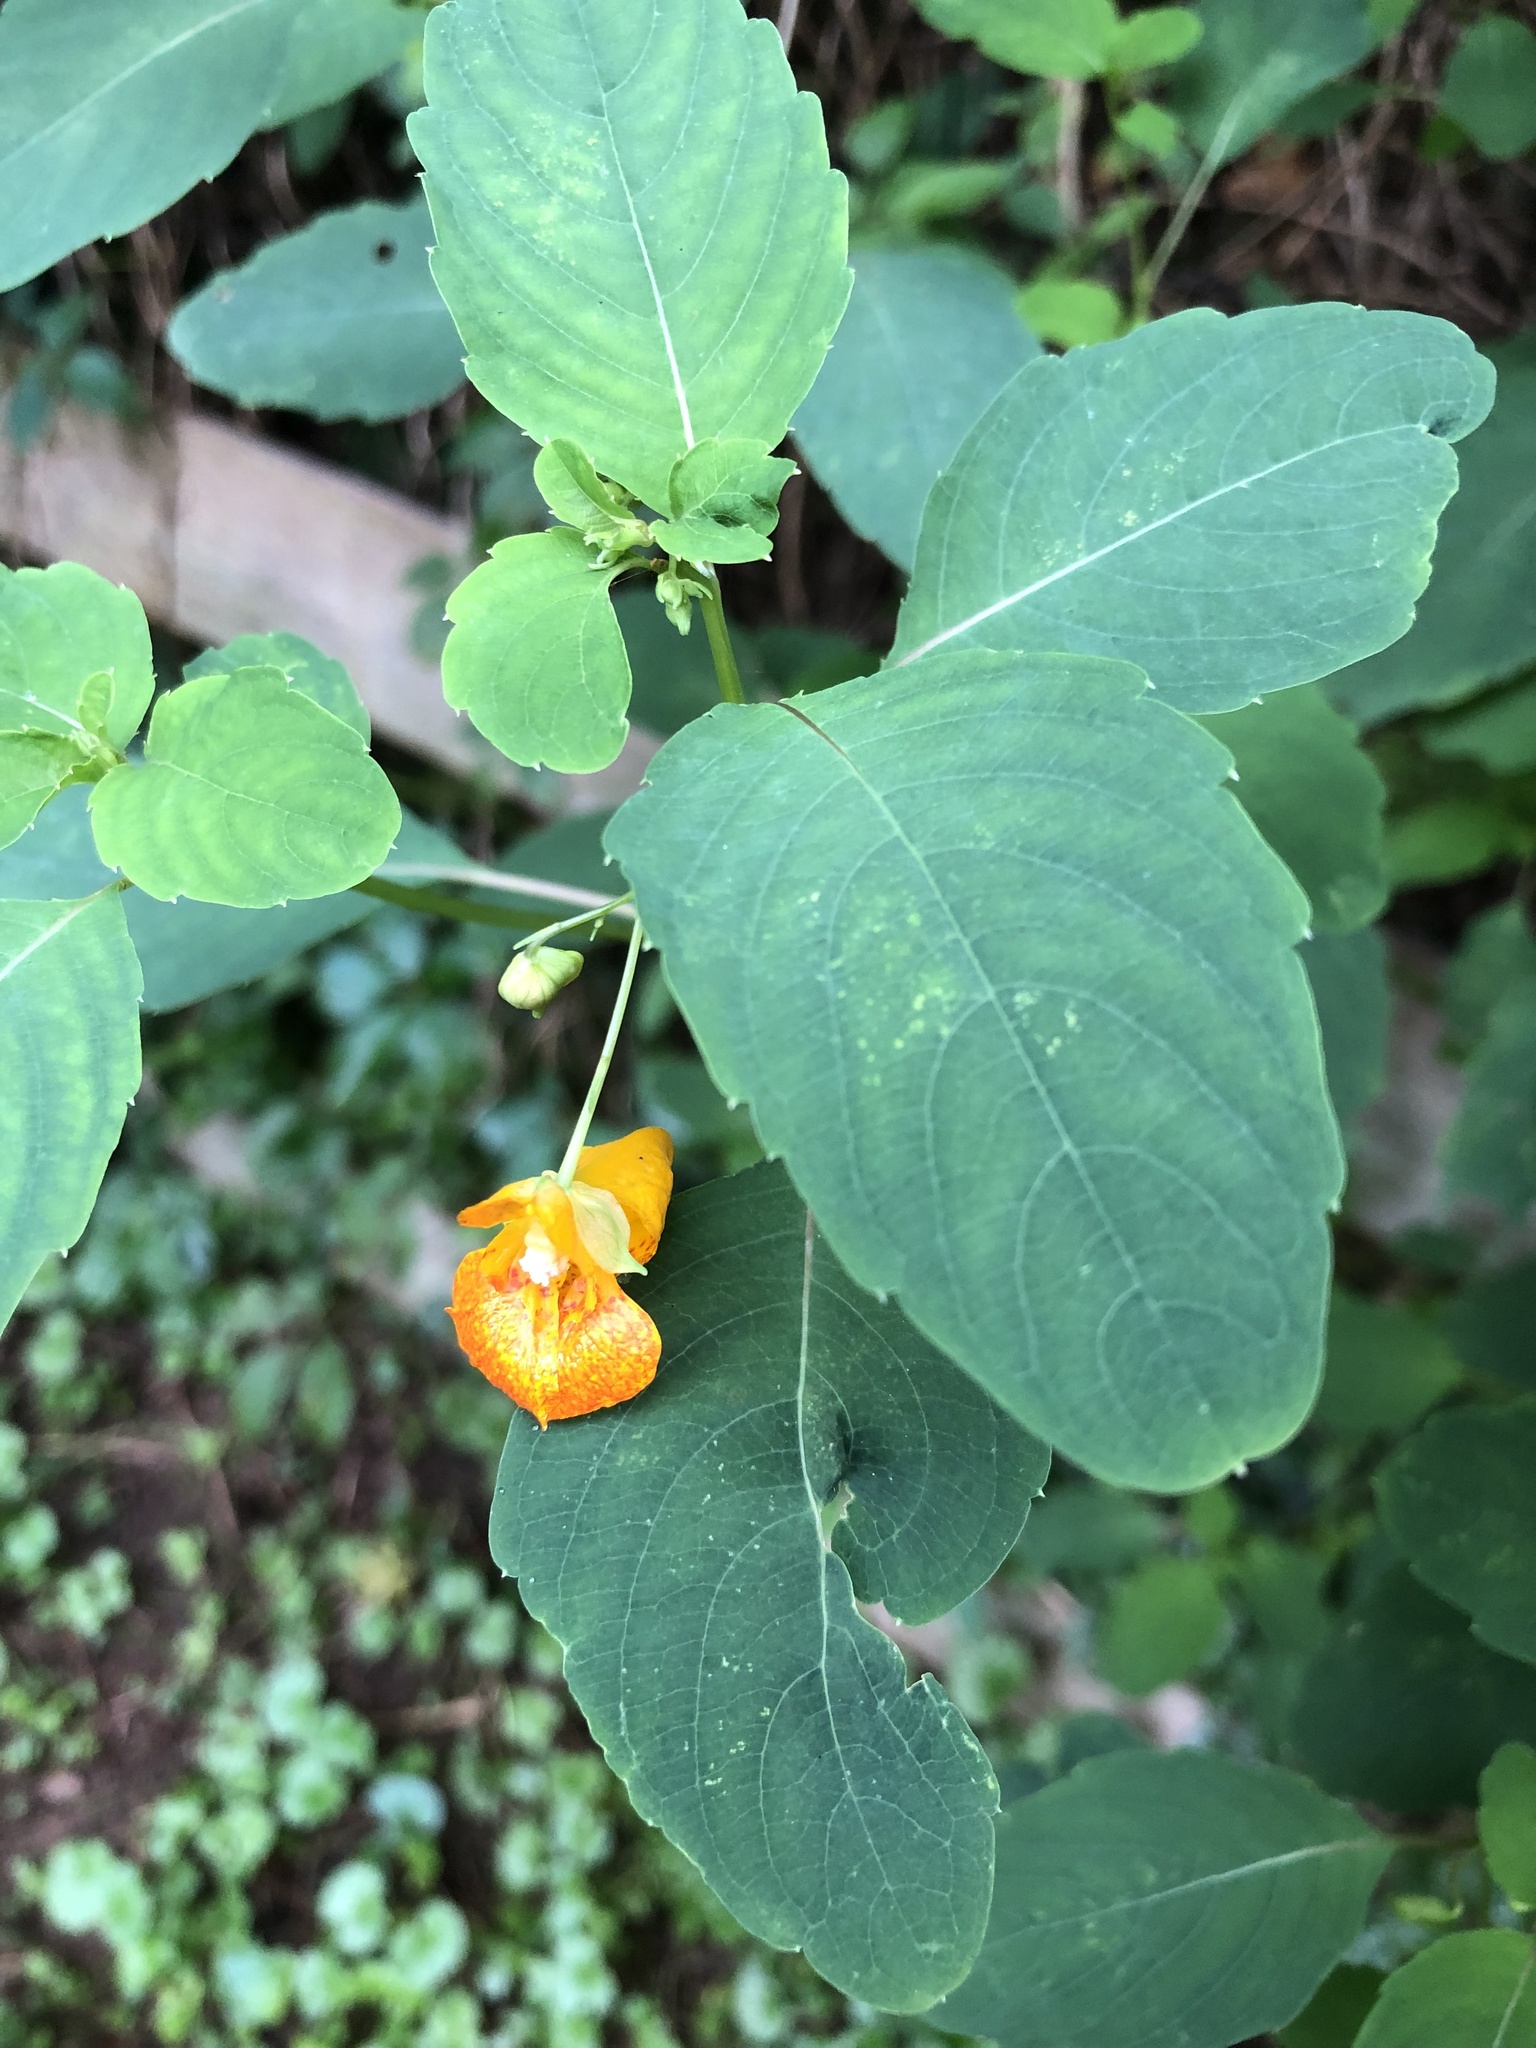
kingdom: Plantae
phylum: Tracheophyta
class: Magnoliopsida
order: Ericales
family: Balsaminaceae
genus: Impatiens
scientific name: Impatiens capensis
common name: Orange balsam
